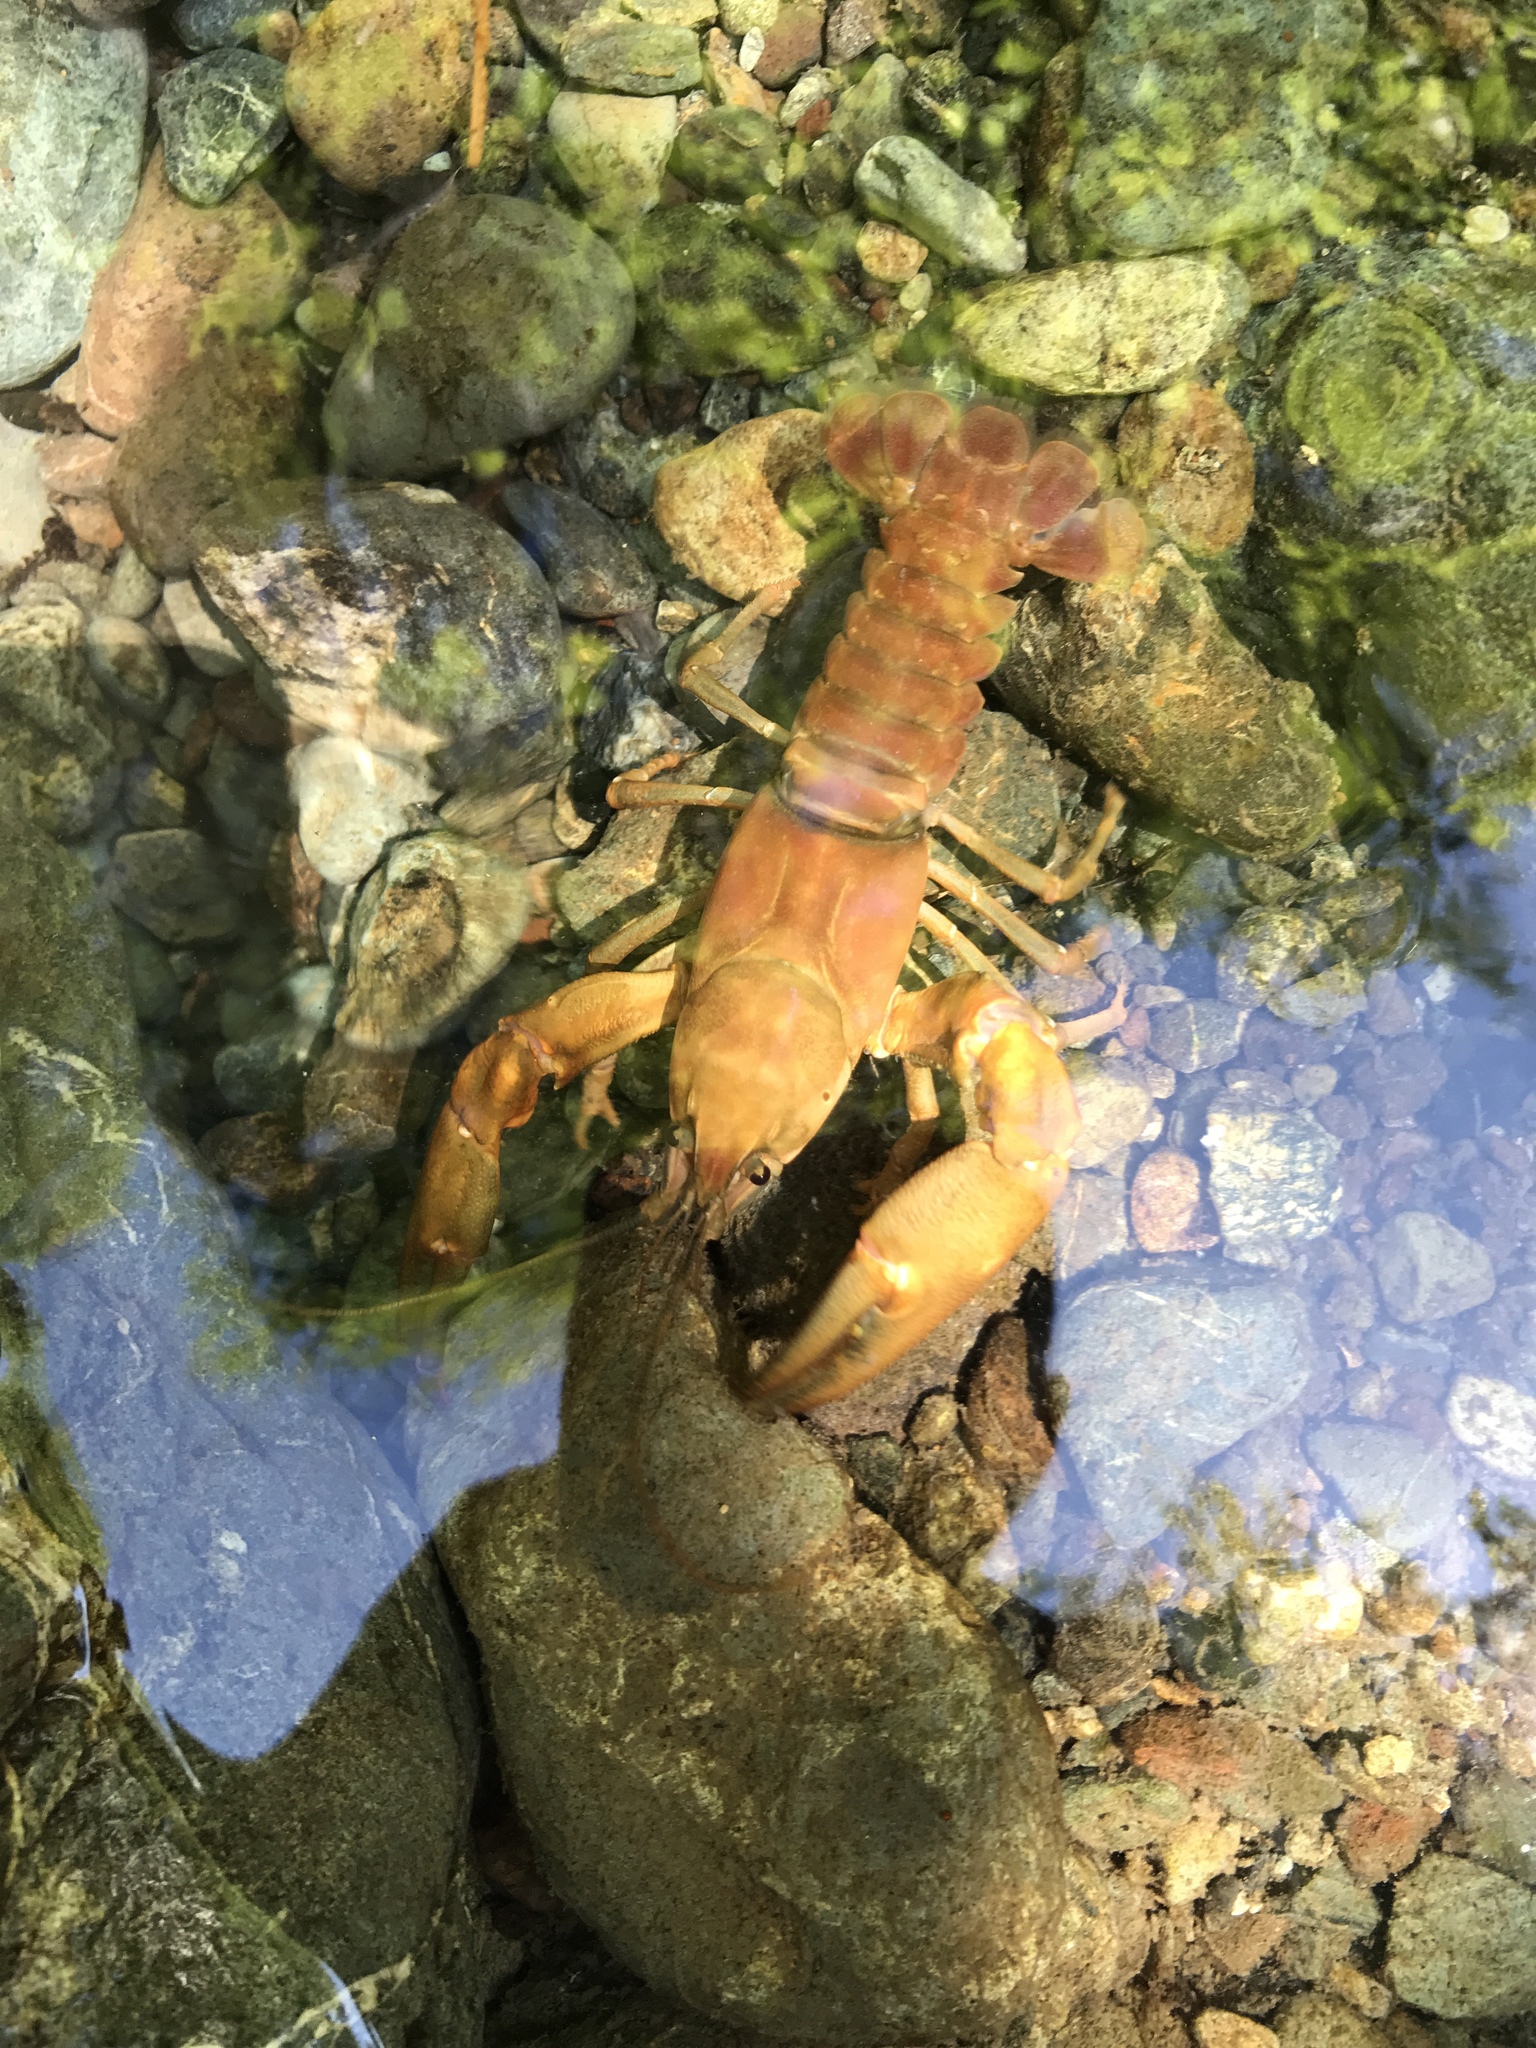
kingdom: Animalia
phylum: Arthropoda
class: Malacostraca
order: Decapoda
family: Astacidae
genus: Pacifastacus
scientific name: Pacifastacus leniusculus
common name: Signal crayfish
